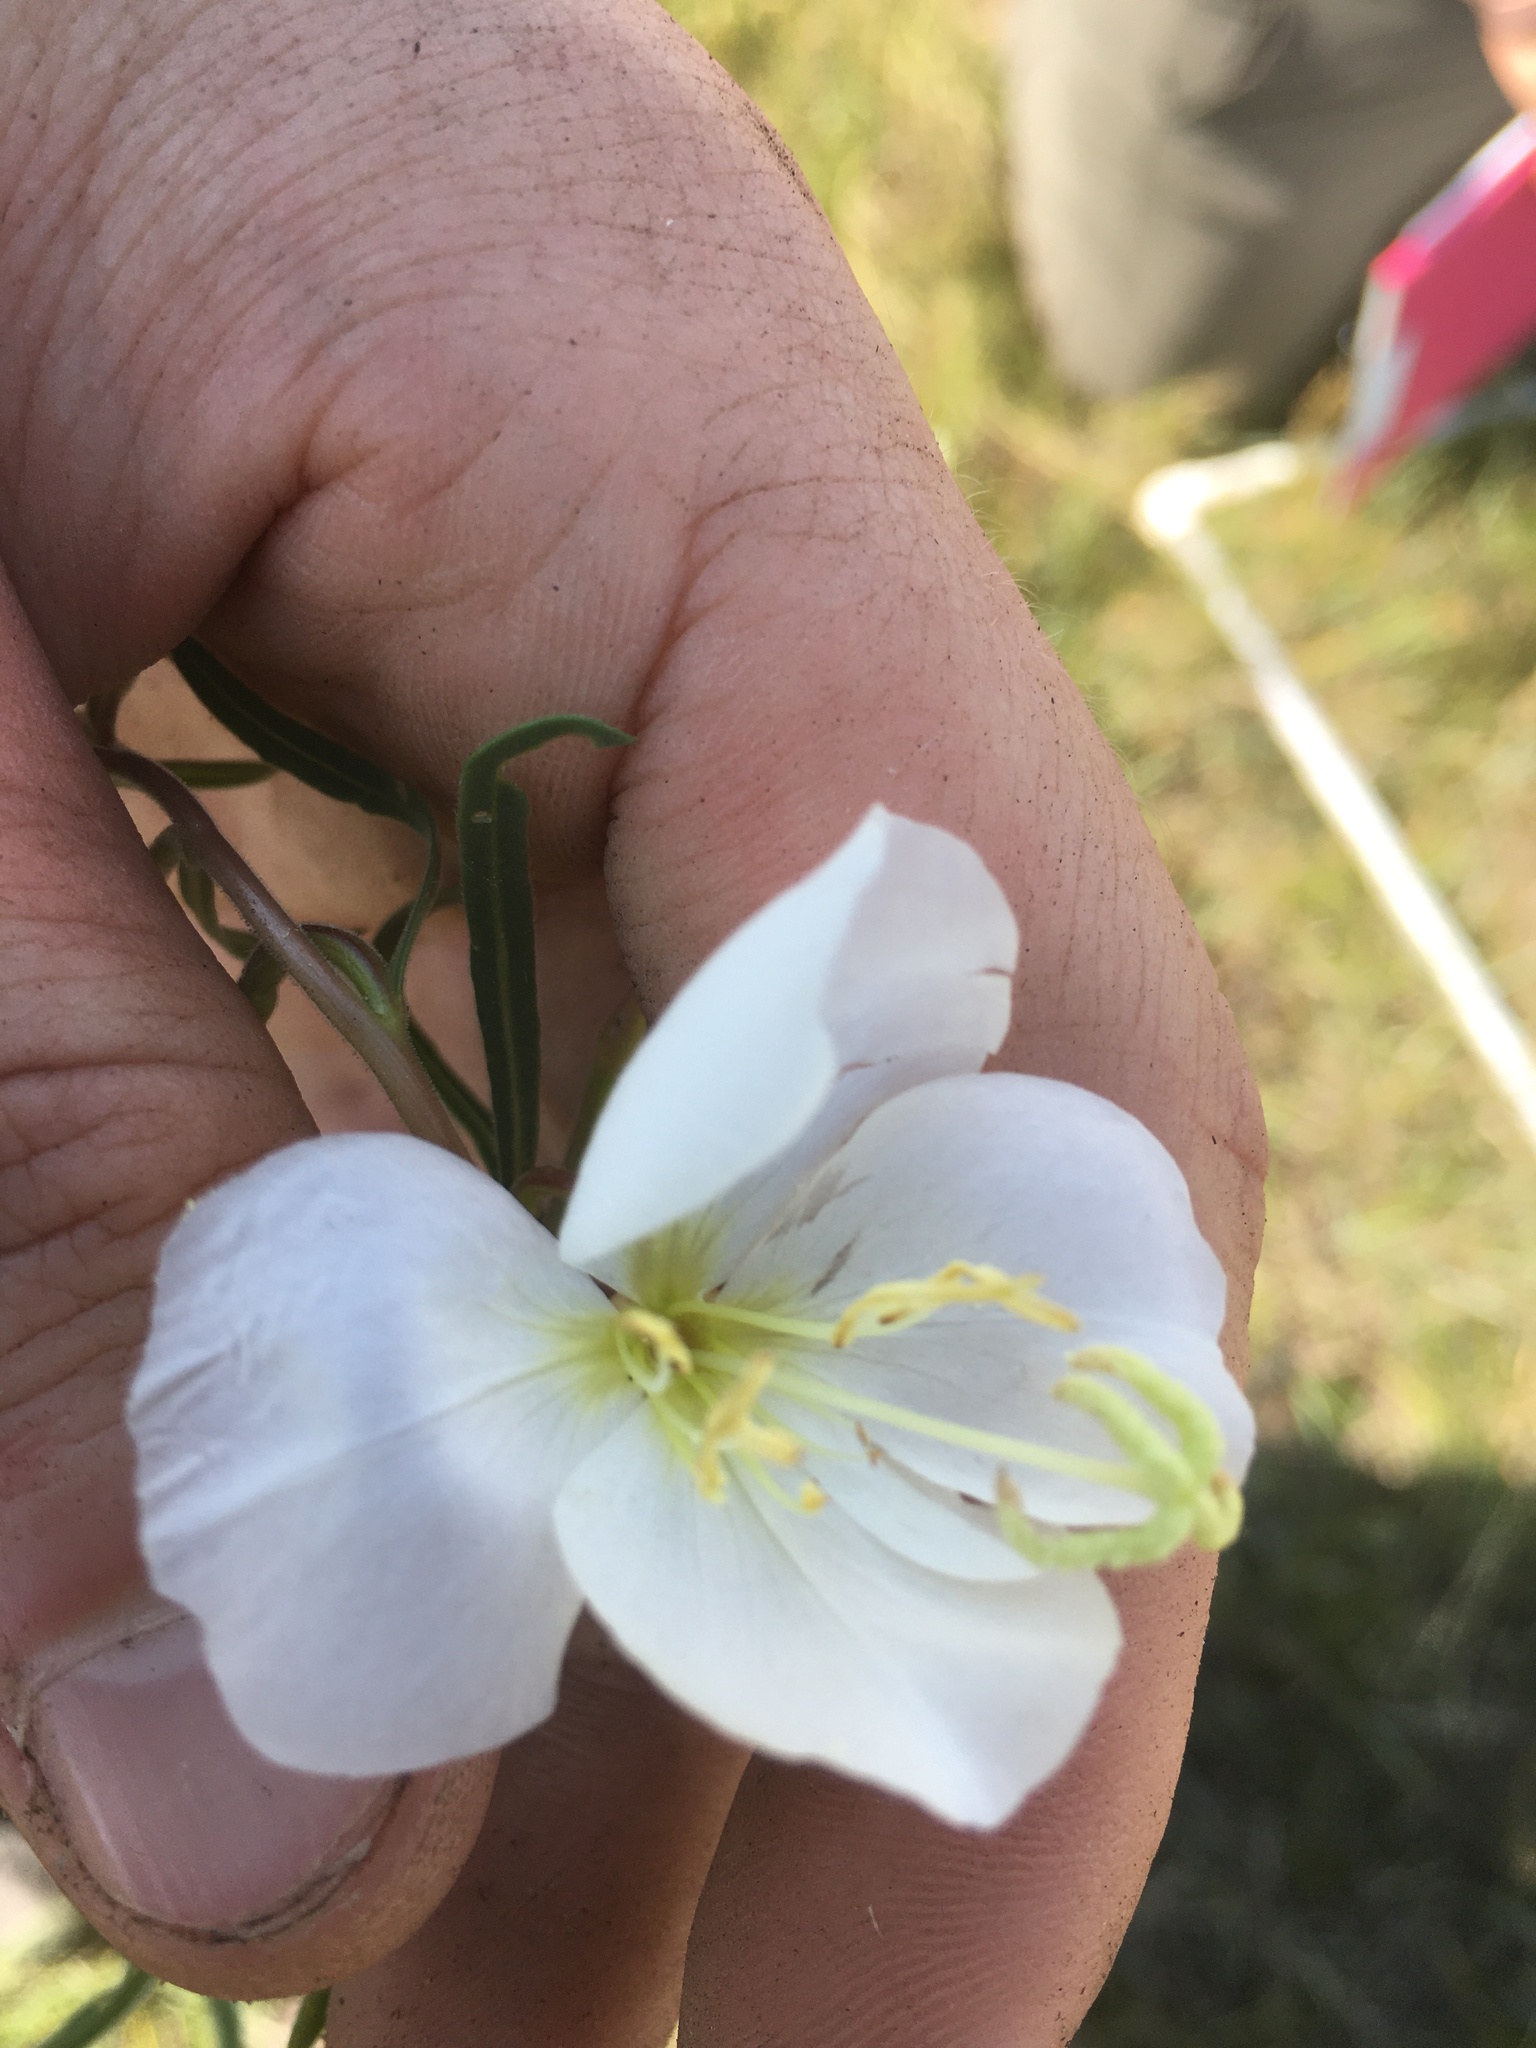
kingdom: Plantae
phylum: Tracheophyta
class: Magnoliopsida
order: Myrtales
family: Onagraceae
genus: Oenothera
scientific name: Oenothera nuttallii
